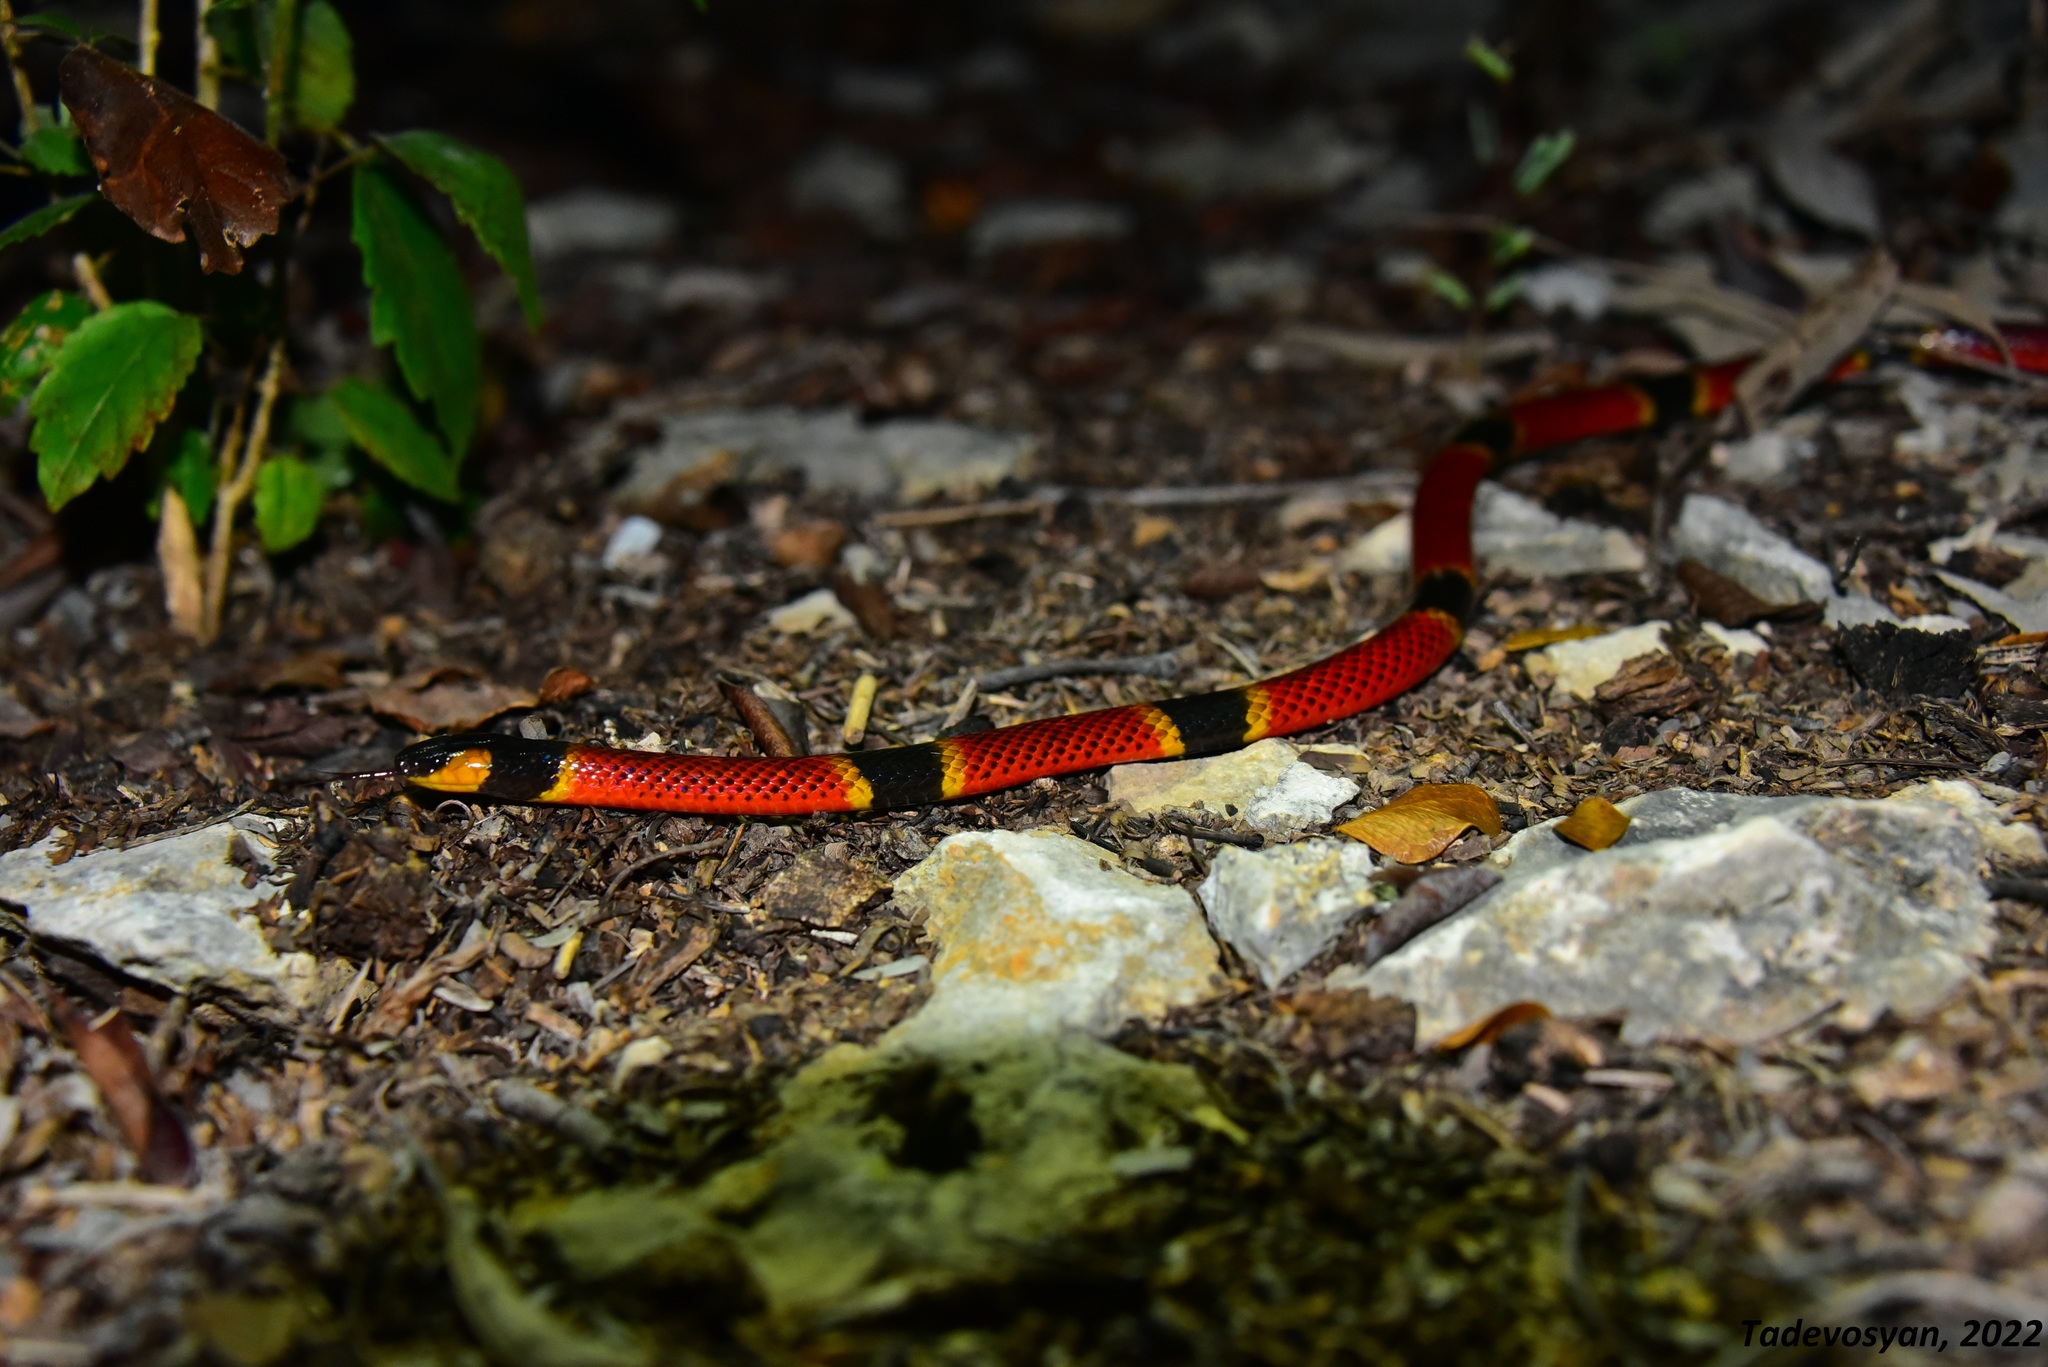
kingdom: Animalia
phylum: Chordata
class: Squamata
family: Elapidae
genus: Micrurus
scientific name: Micrurus diastema
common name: Diastema coral snake
